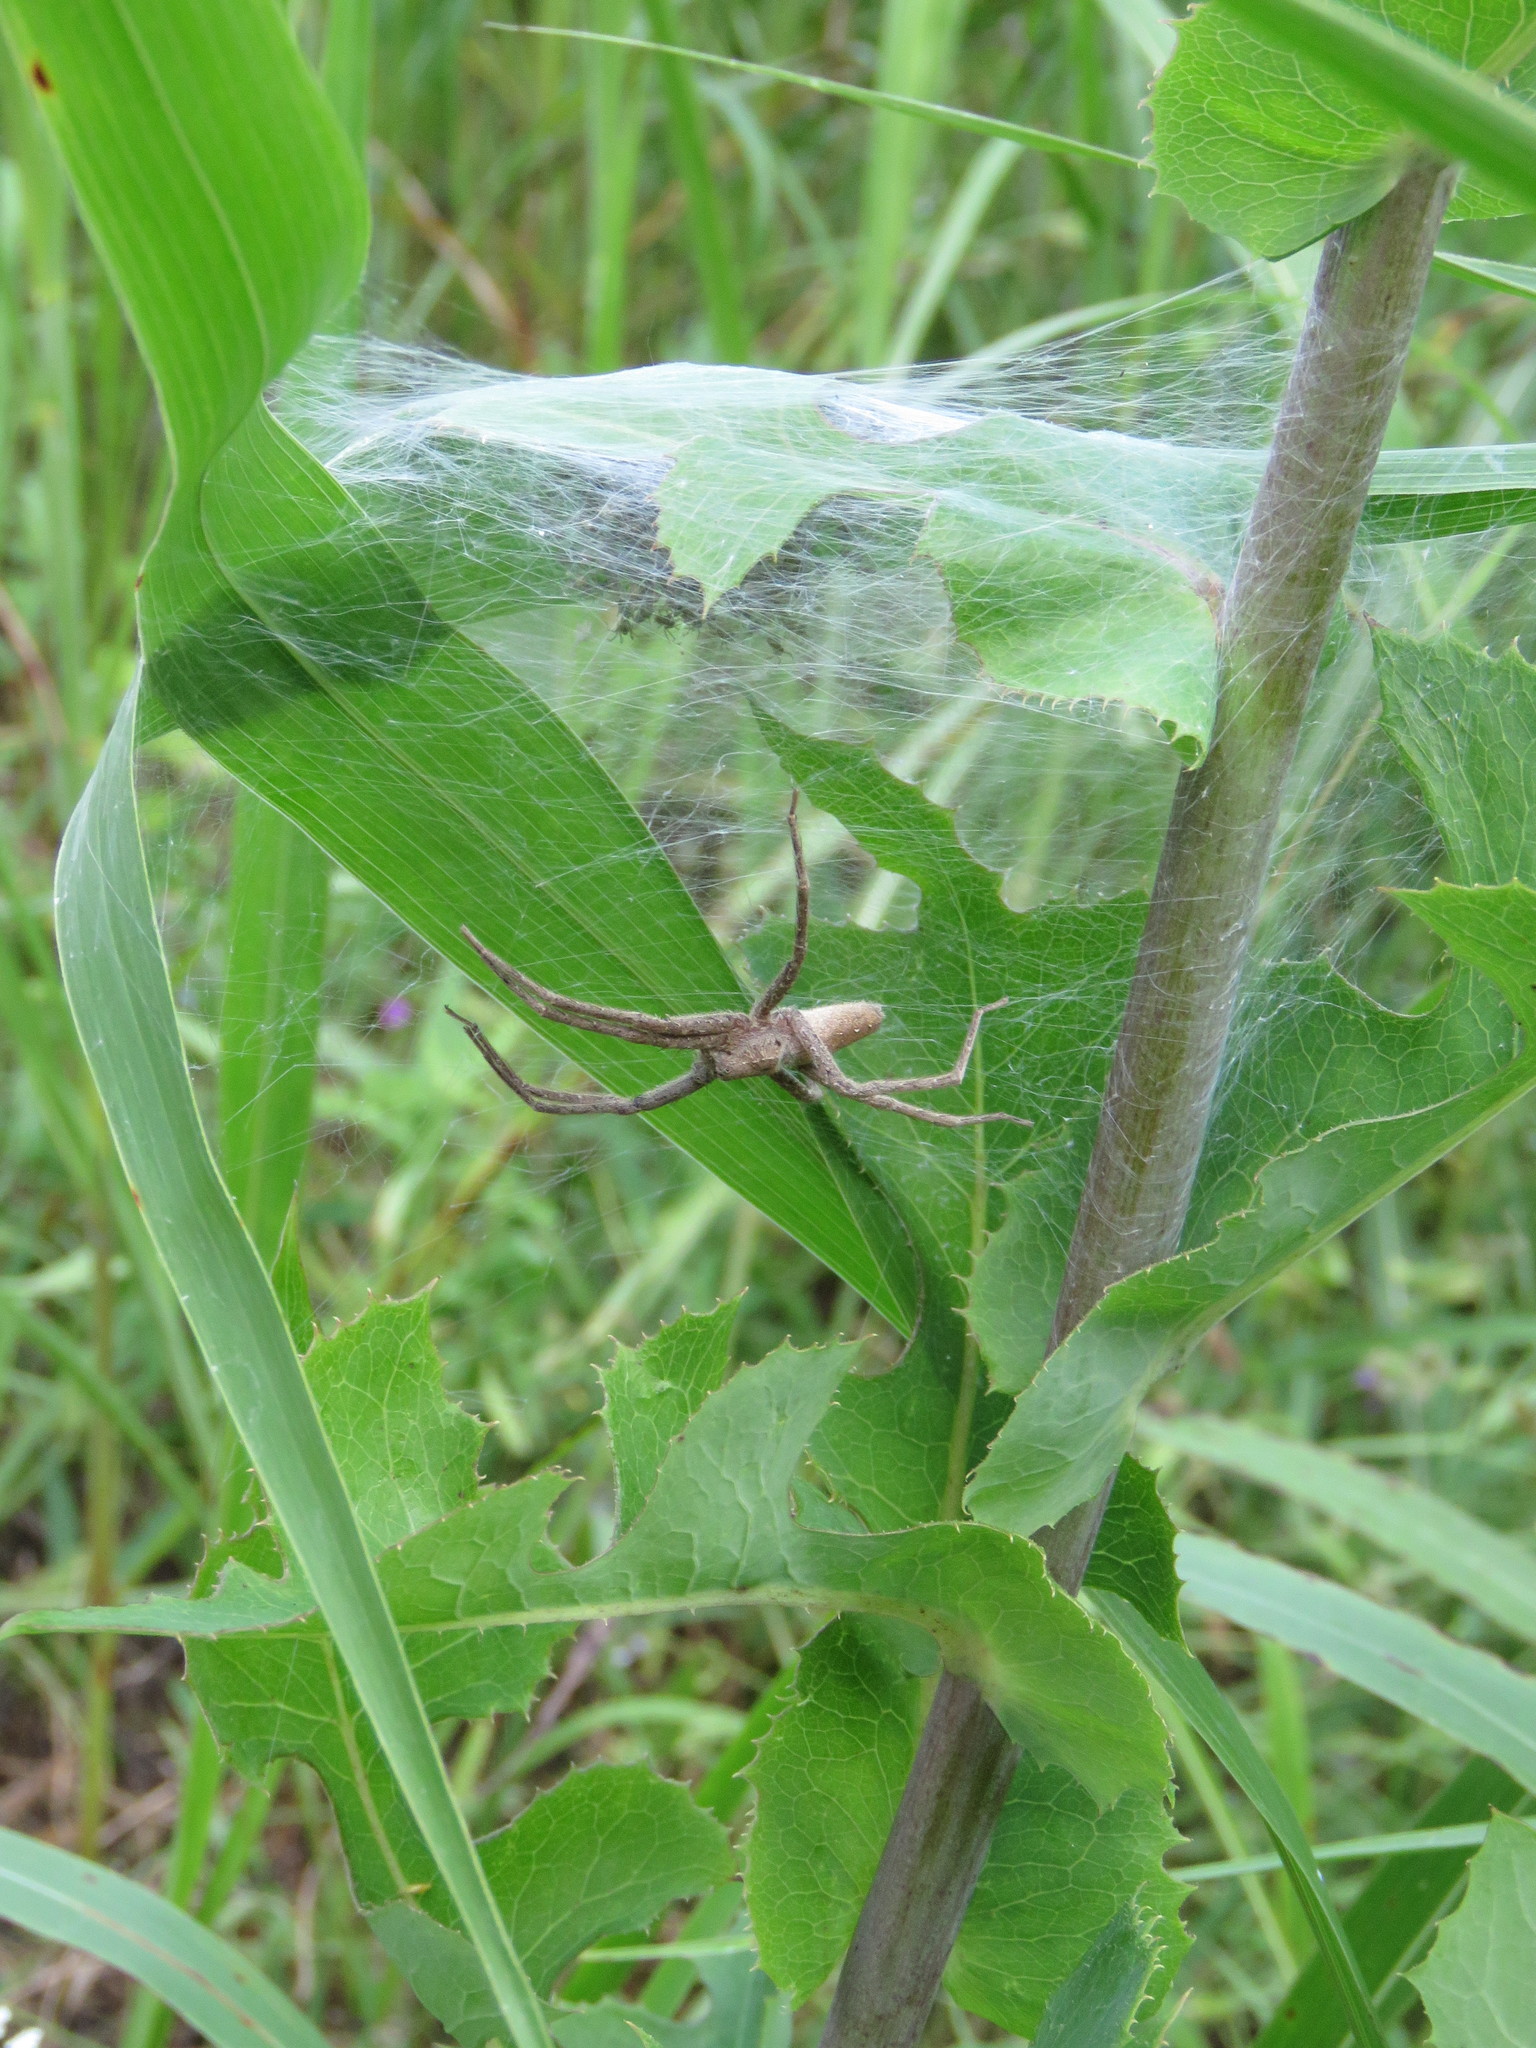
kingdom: Animalia
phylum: Arthropoda
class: Arachnida
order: Araneae
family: Pisauridae
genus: Pisaurina
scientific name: Pisaurina mira
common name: American nursery web spider
